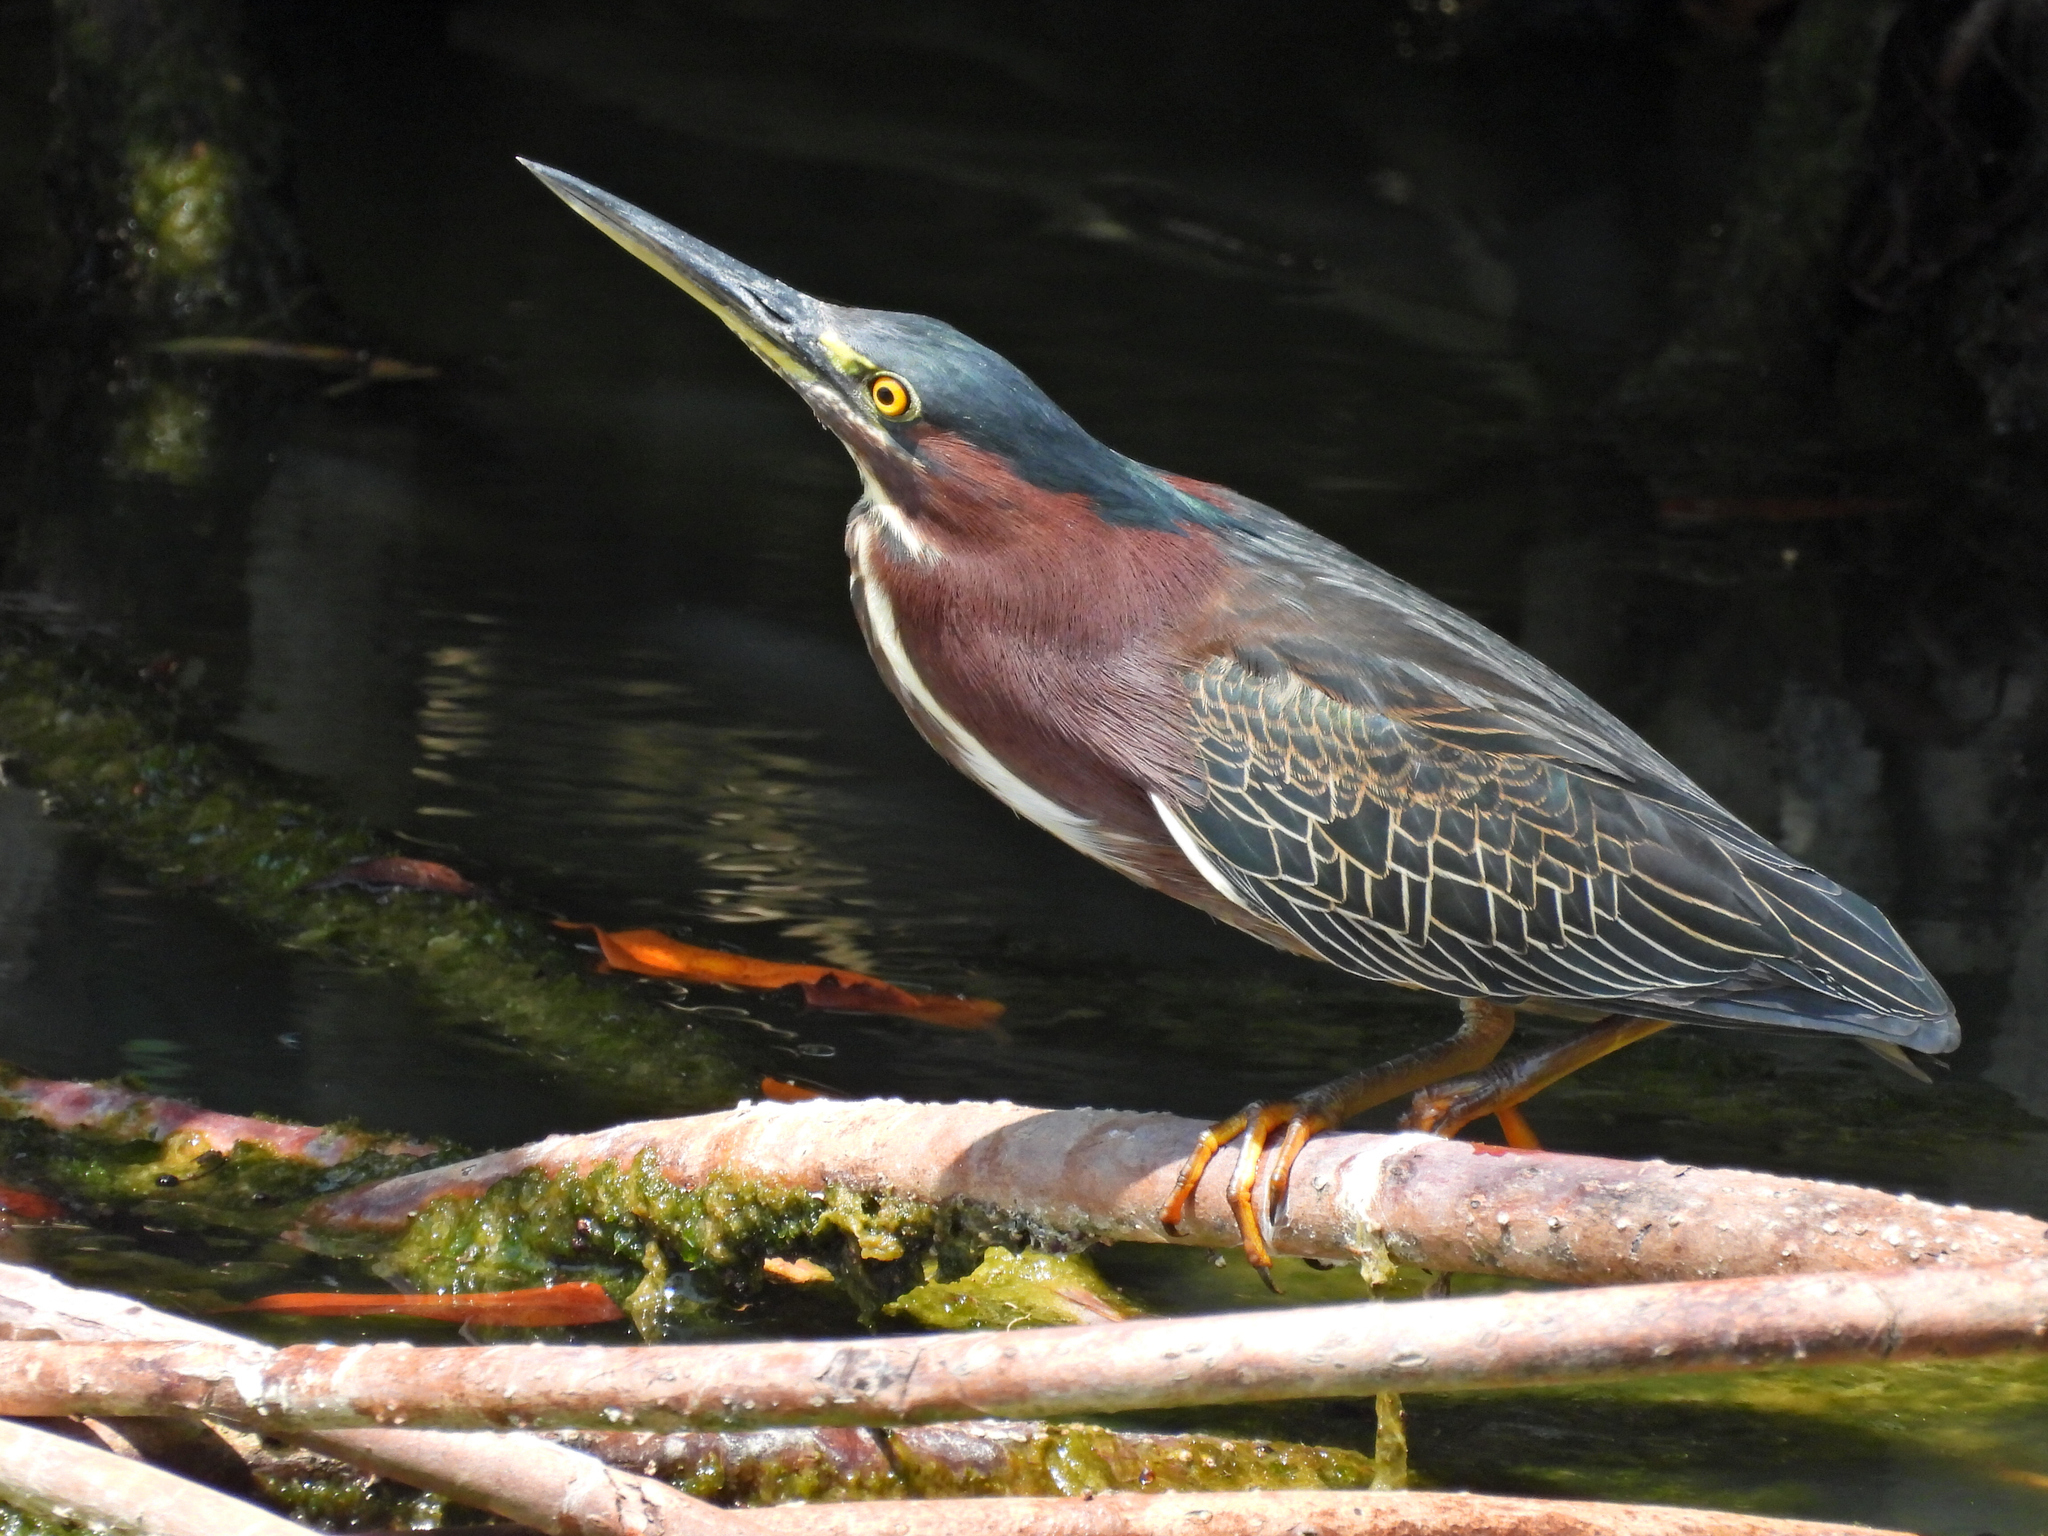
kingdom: Animalia
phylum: Chordata
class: Aves
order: Pelecaniformes
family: Ardeidae
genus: Butorides
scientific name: Butorides virescens
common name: Green heron
